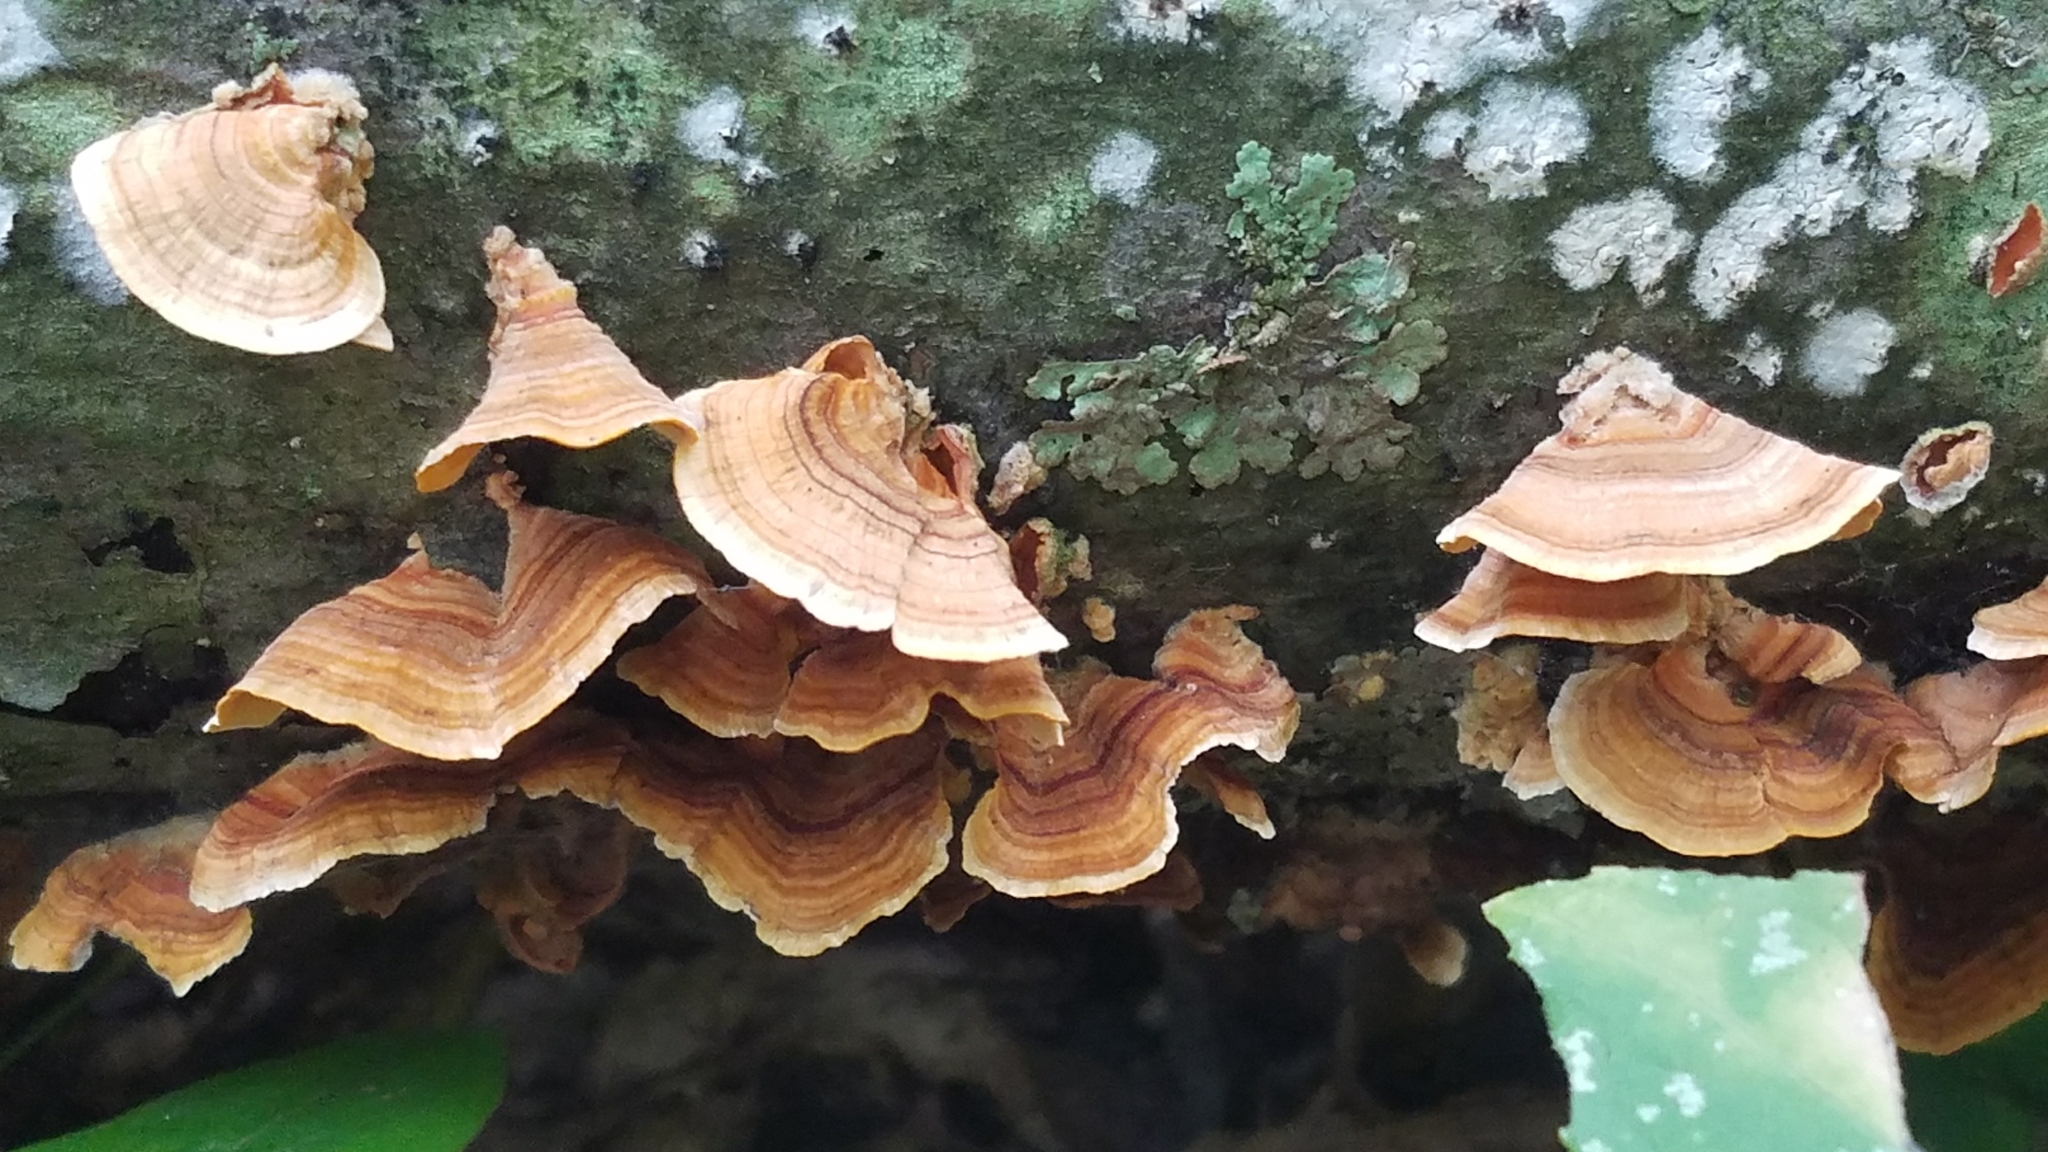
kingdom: Fungi
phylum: Basidiomycota
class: Agaricomycetes
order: Russulales
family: Stereaceae
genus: Stereum
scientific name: Stereum hirsutum
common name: Hairy curtain crust
